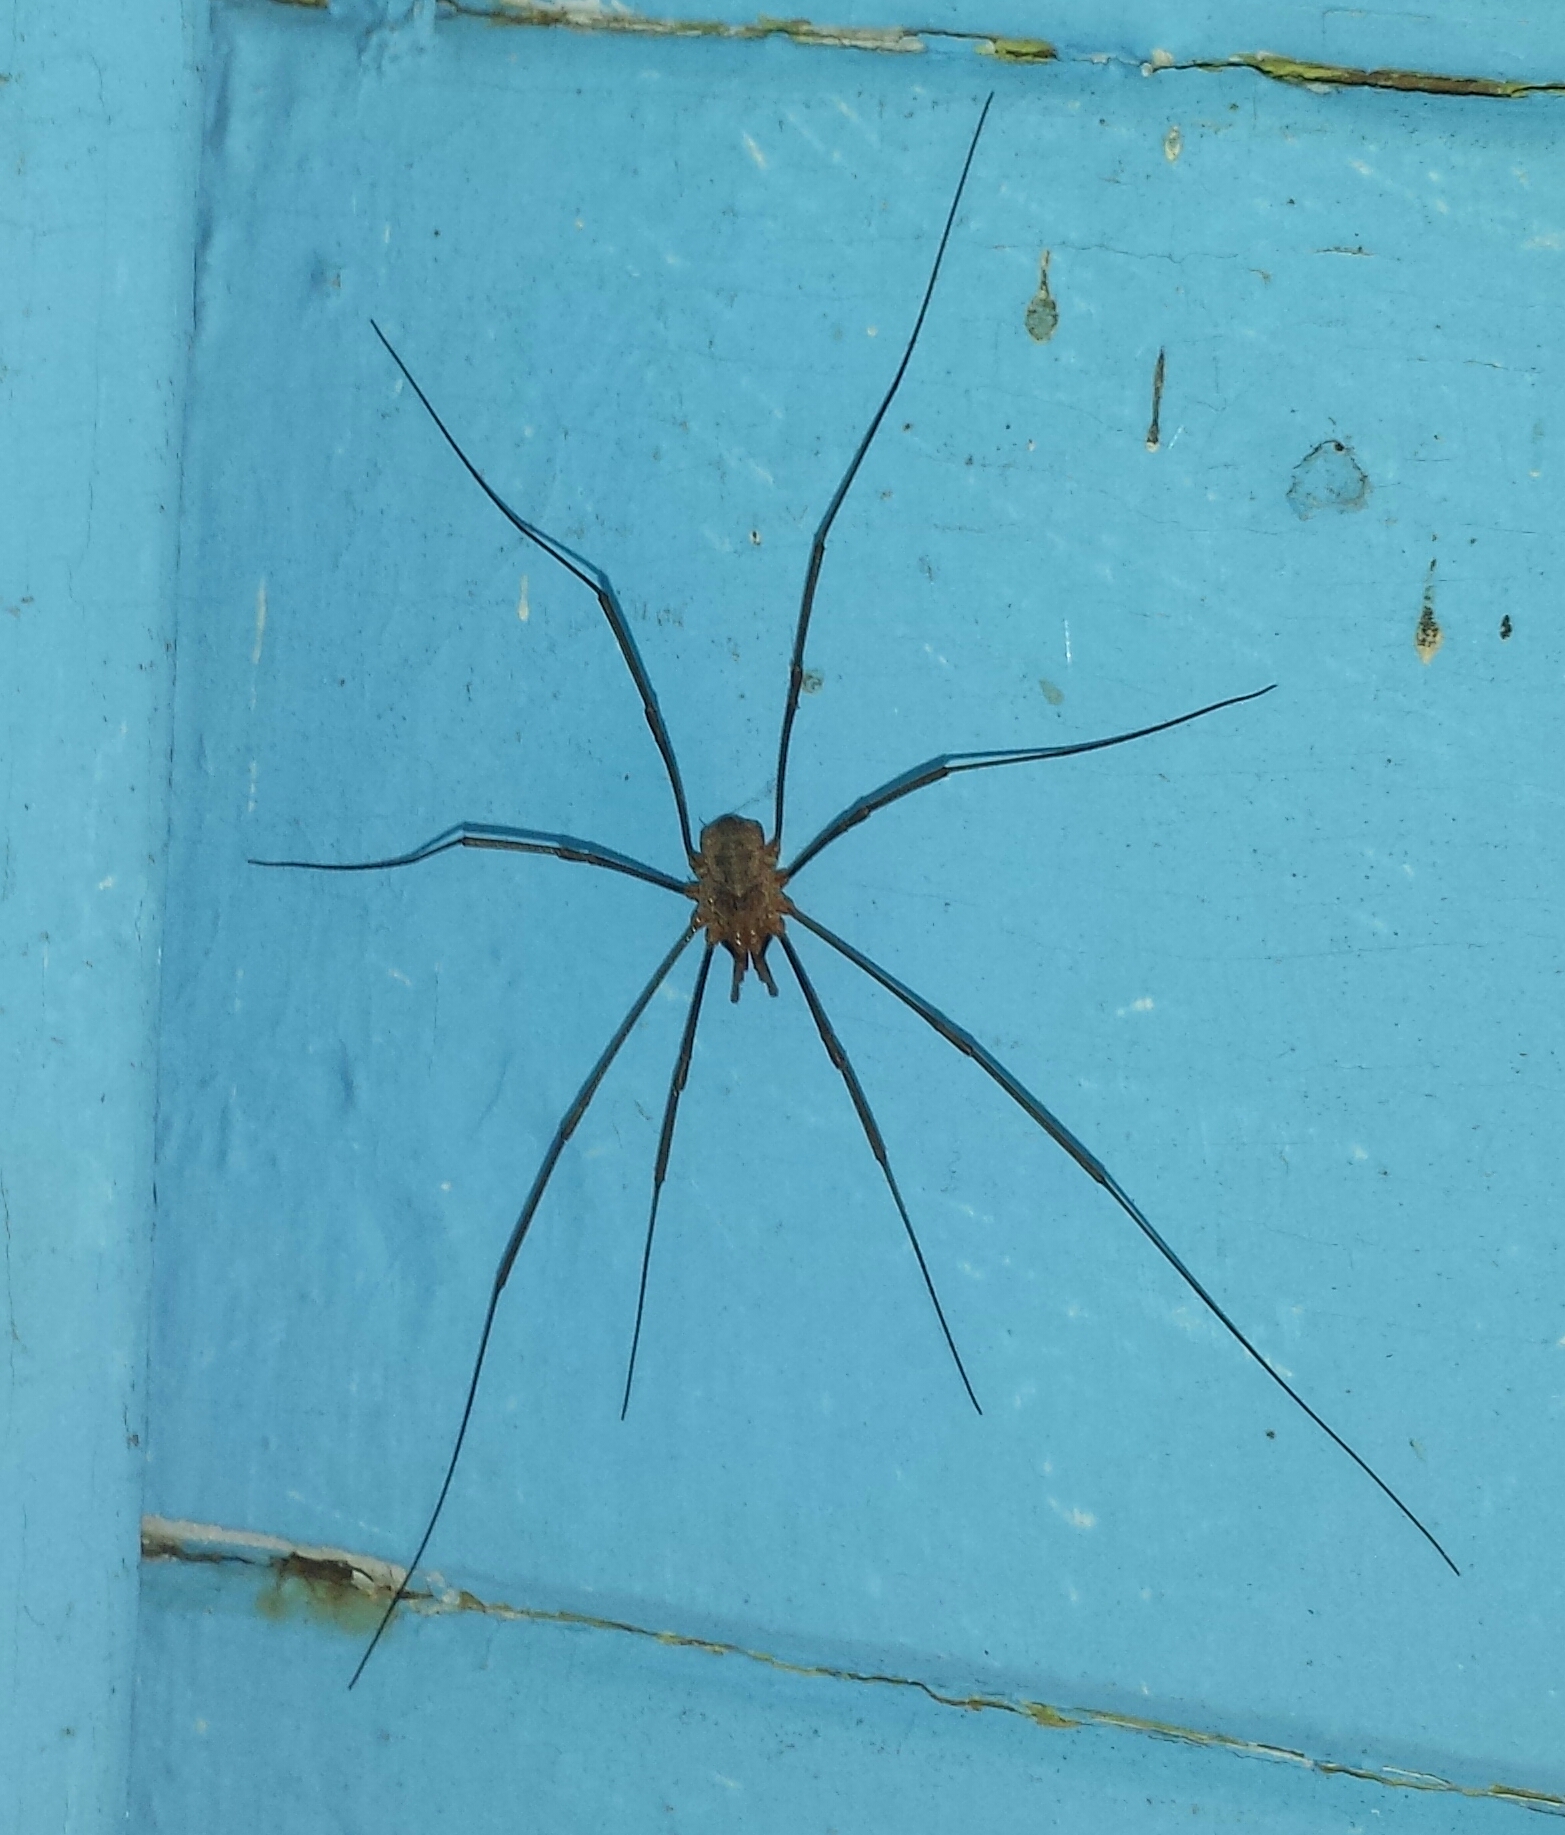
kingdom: Animalia
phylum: Arthropoda
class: Arachnida
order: Opiliones
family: Phalangiidae
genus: Phalangium
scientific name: Phalangium opilio
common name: Daddy longleg
